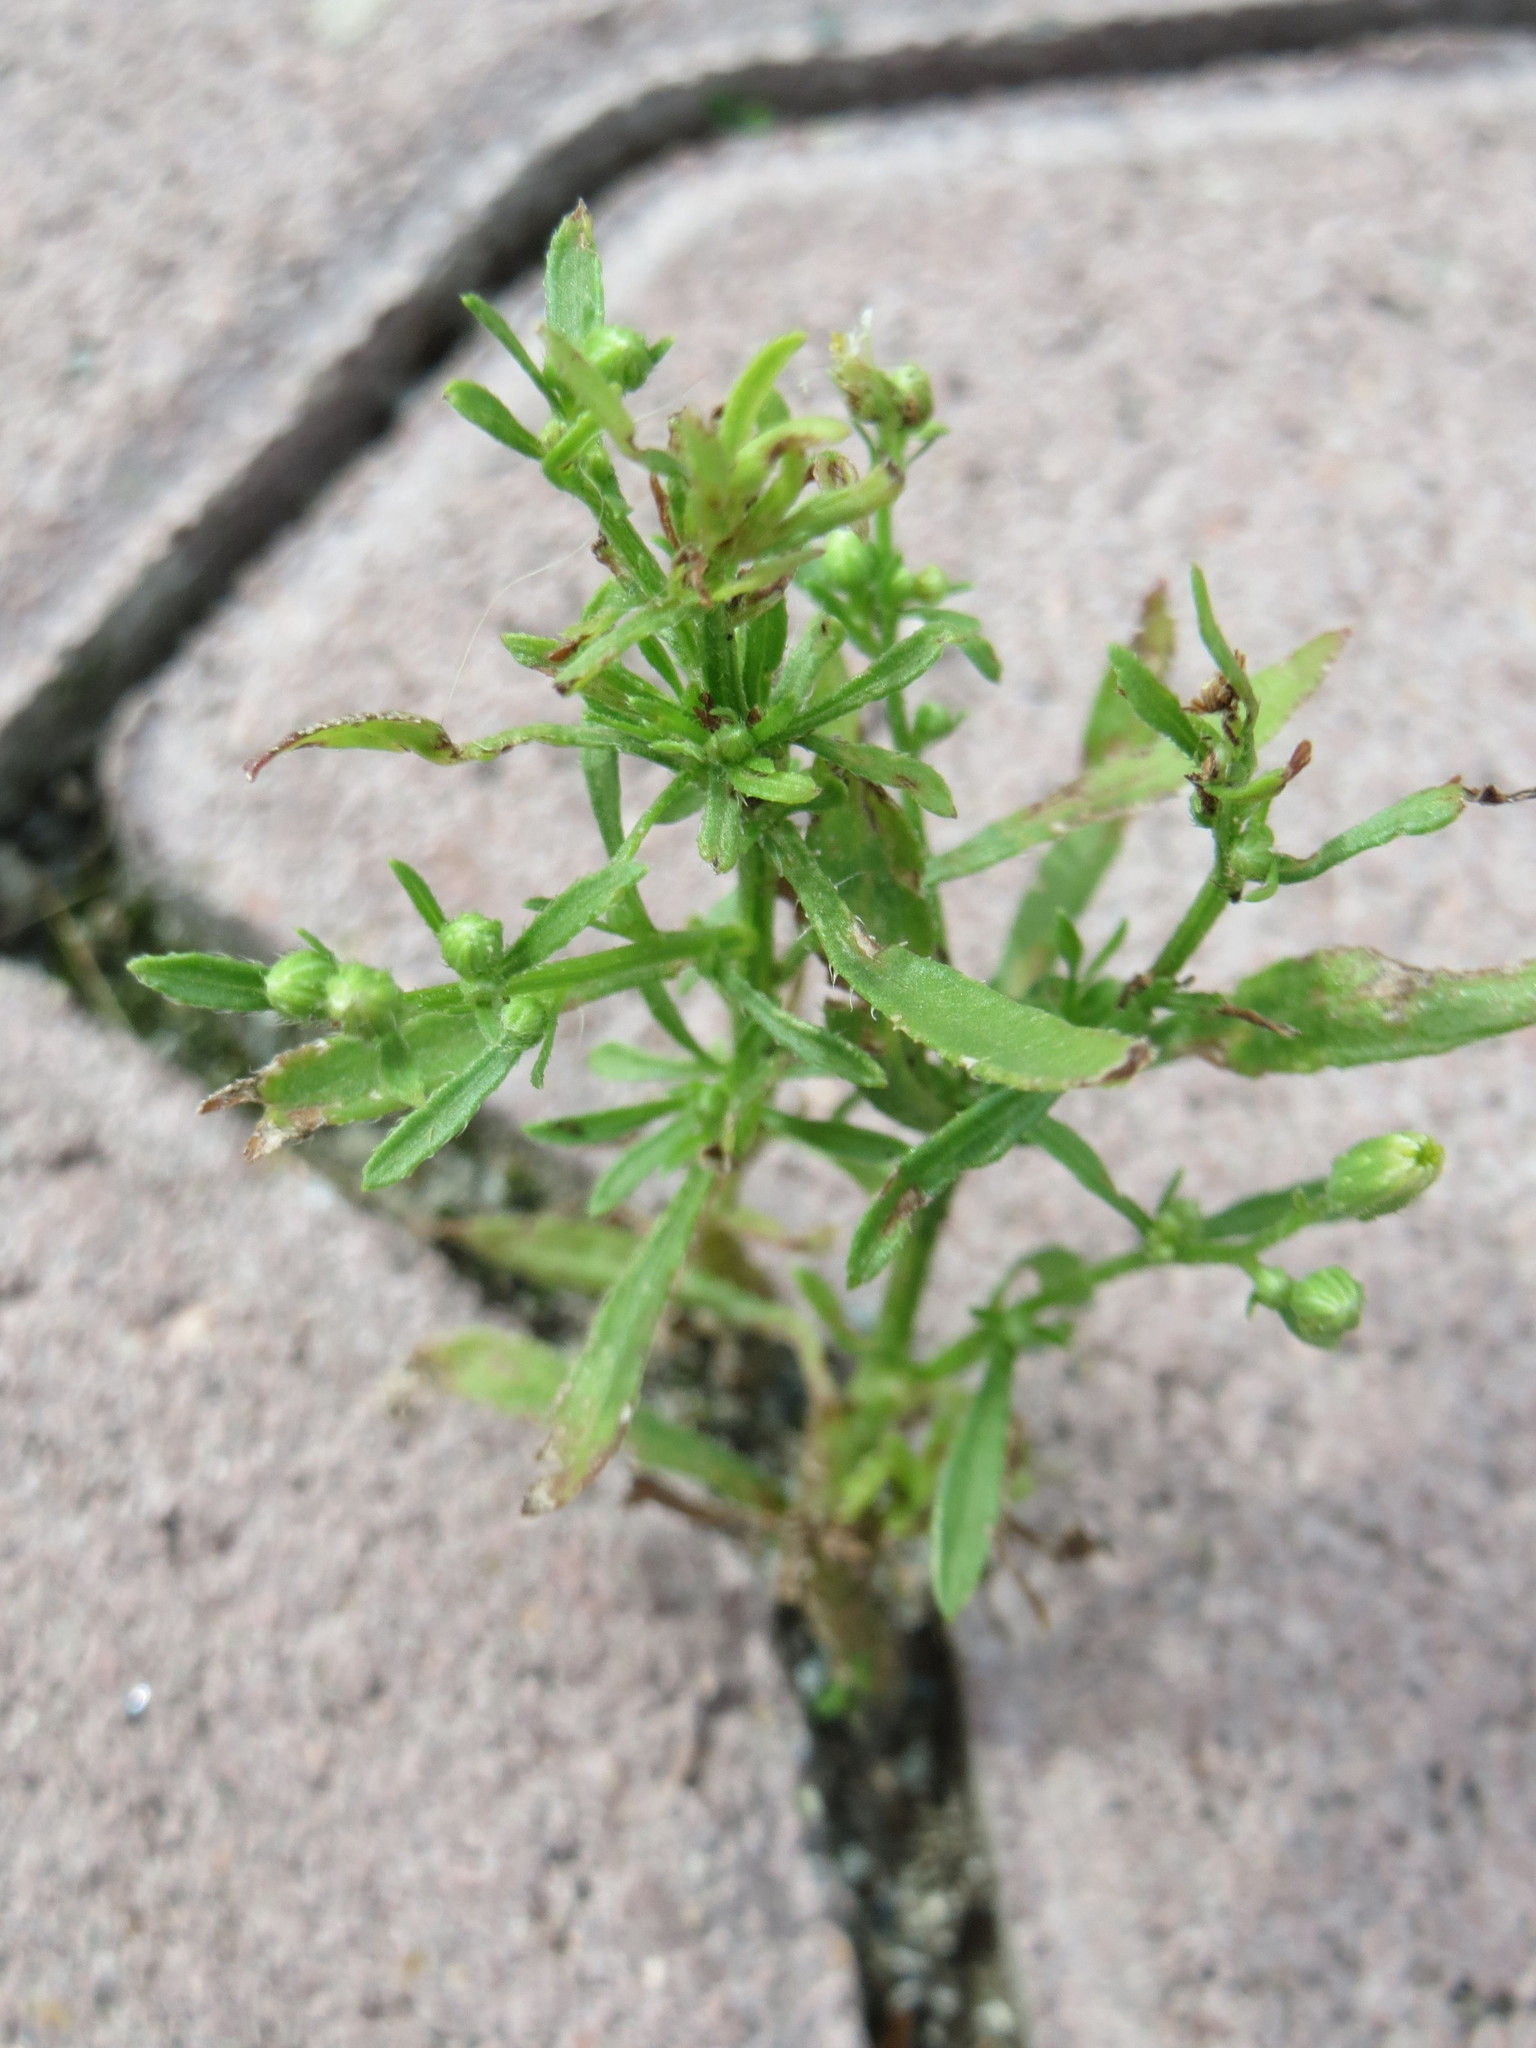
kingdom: Plantae
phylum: Tracheophyta
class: Magnoliopsida
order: Asterales
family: Asteraceae
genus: Erigeron
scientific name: Erigeron canadensis
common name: Canadian fleabane
